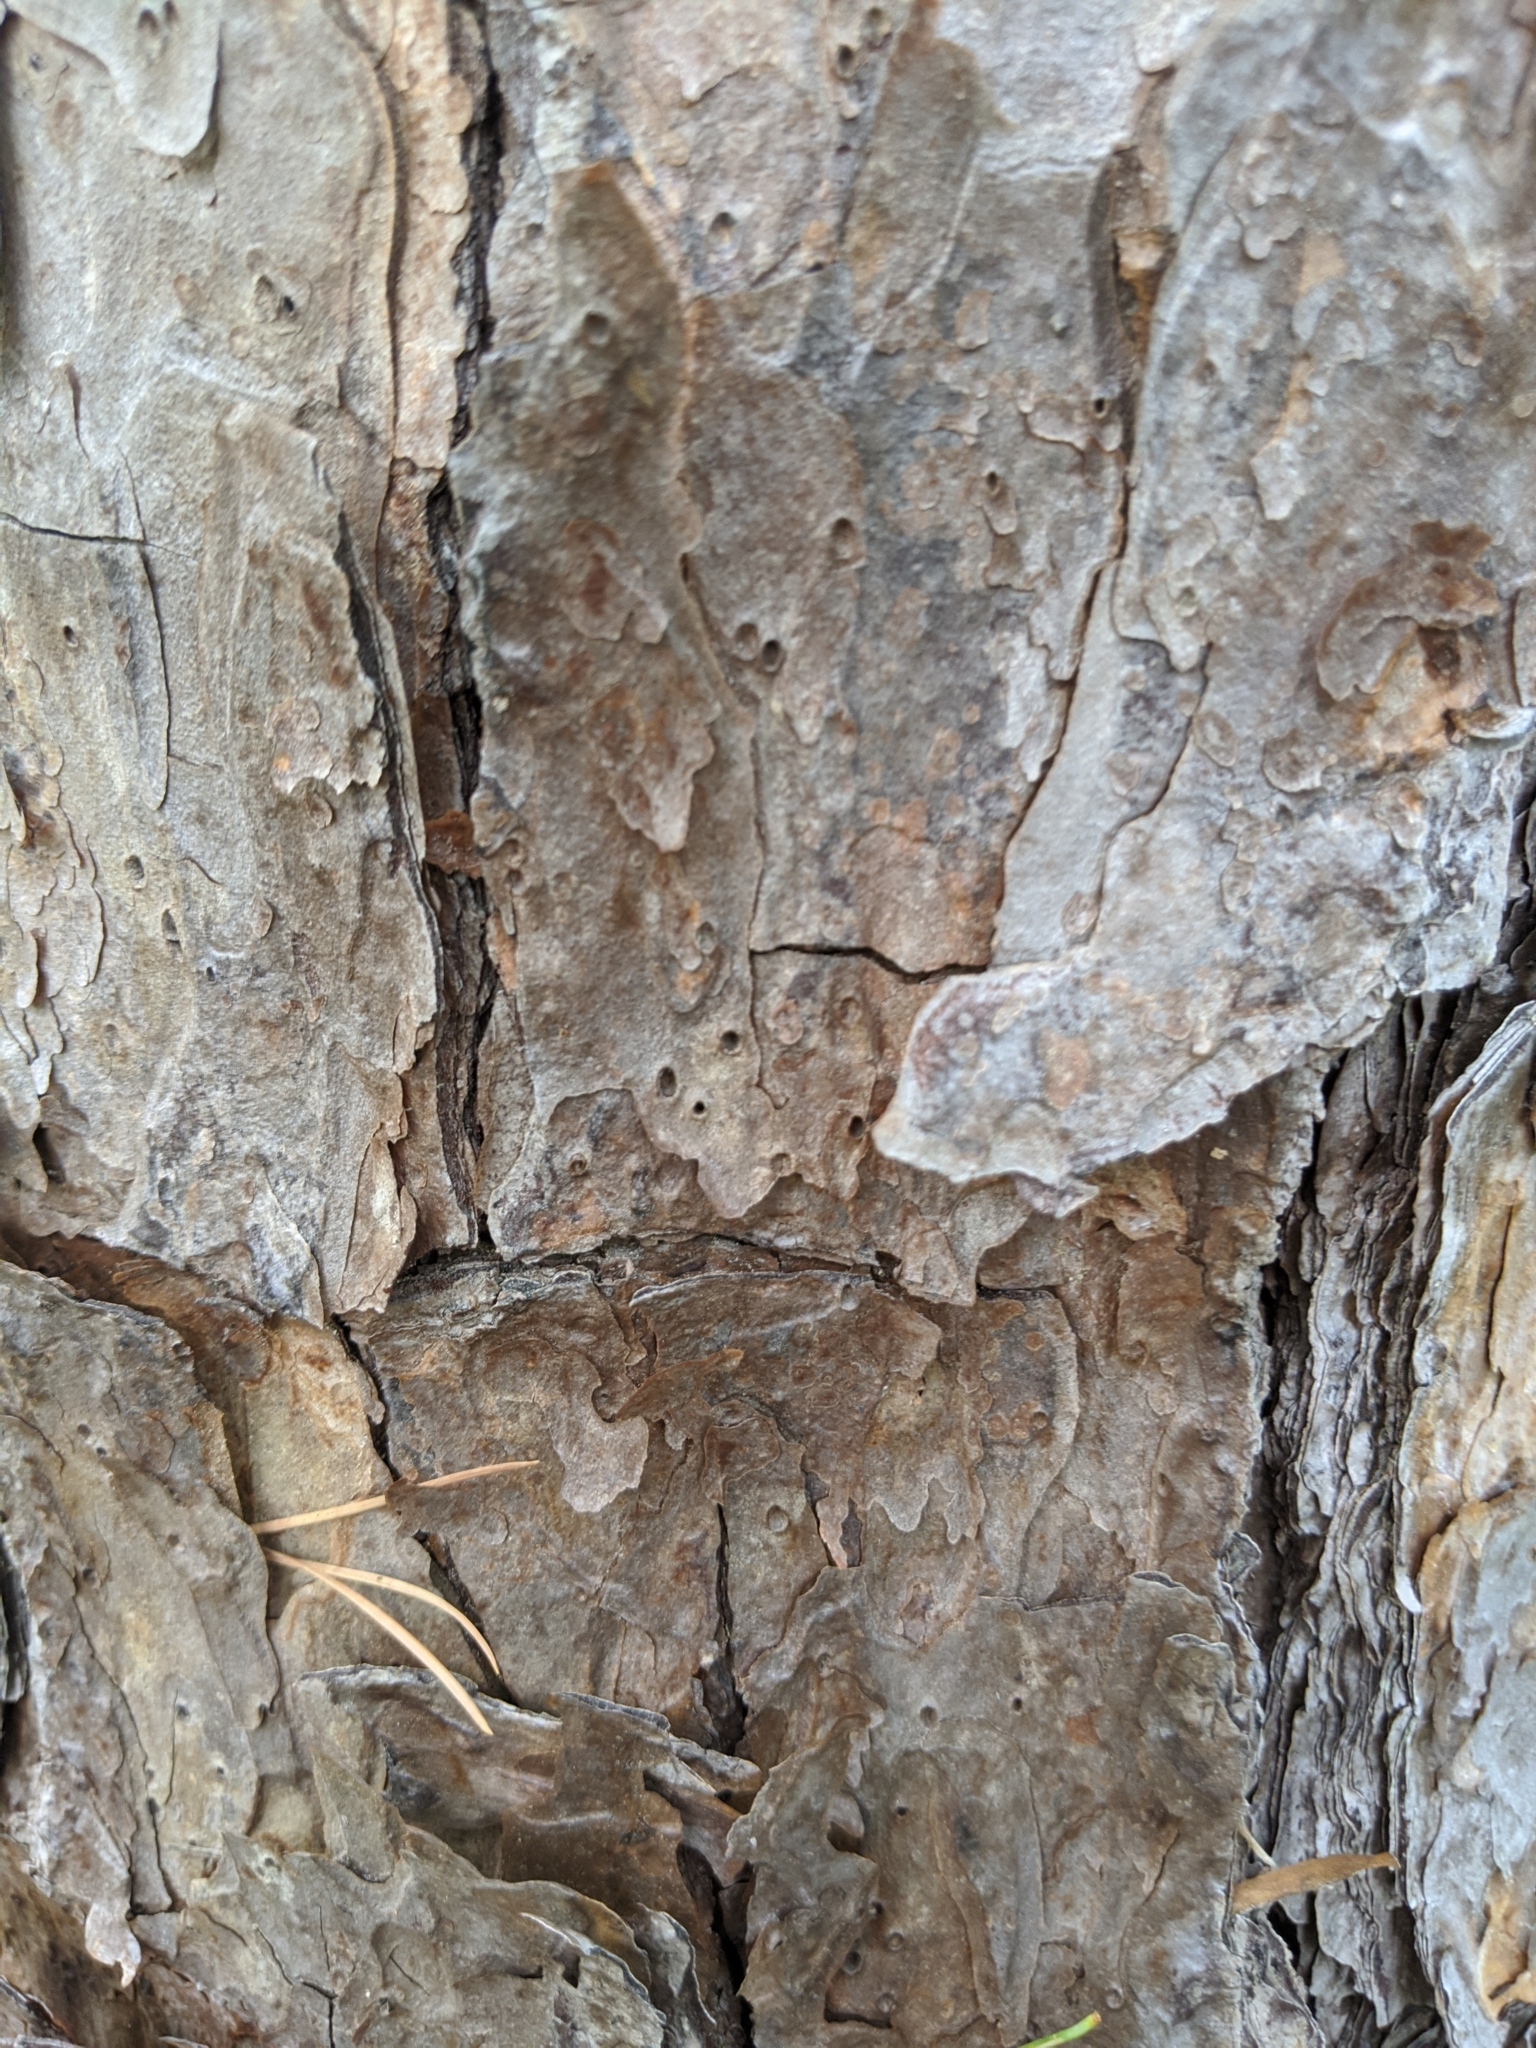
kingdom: Plantae
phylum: Tracheophyta
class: Pinopsida
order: Pinales
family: Pinaceae
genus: Pinus
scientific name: Pinus echinata
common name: Shortleaf pine
